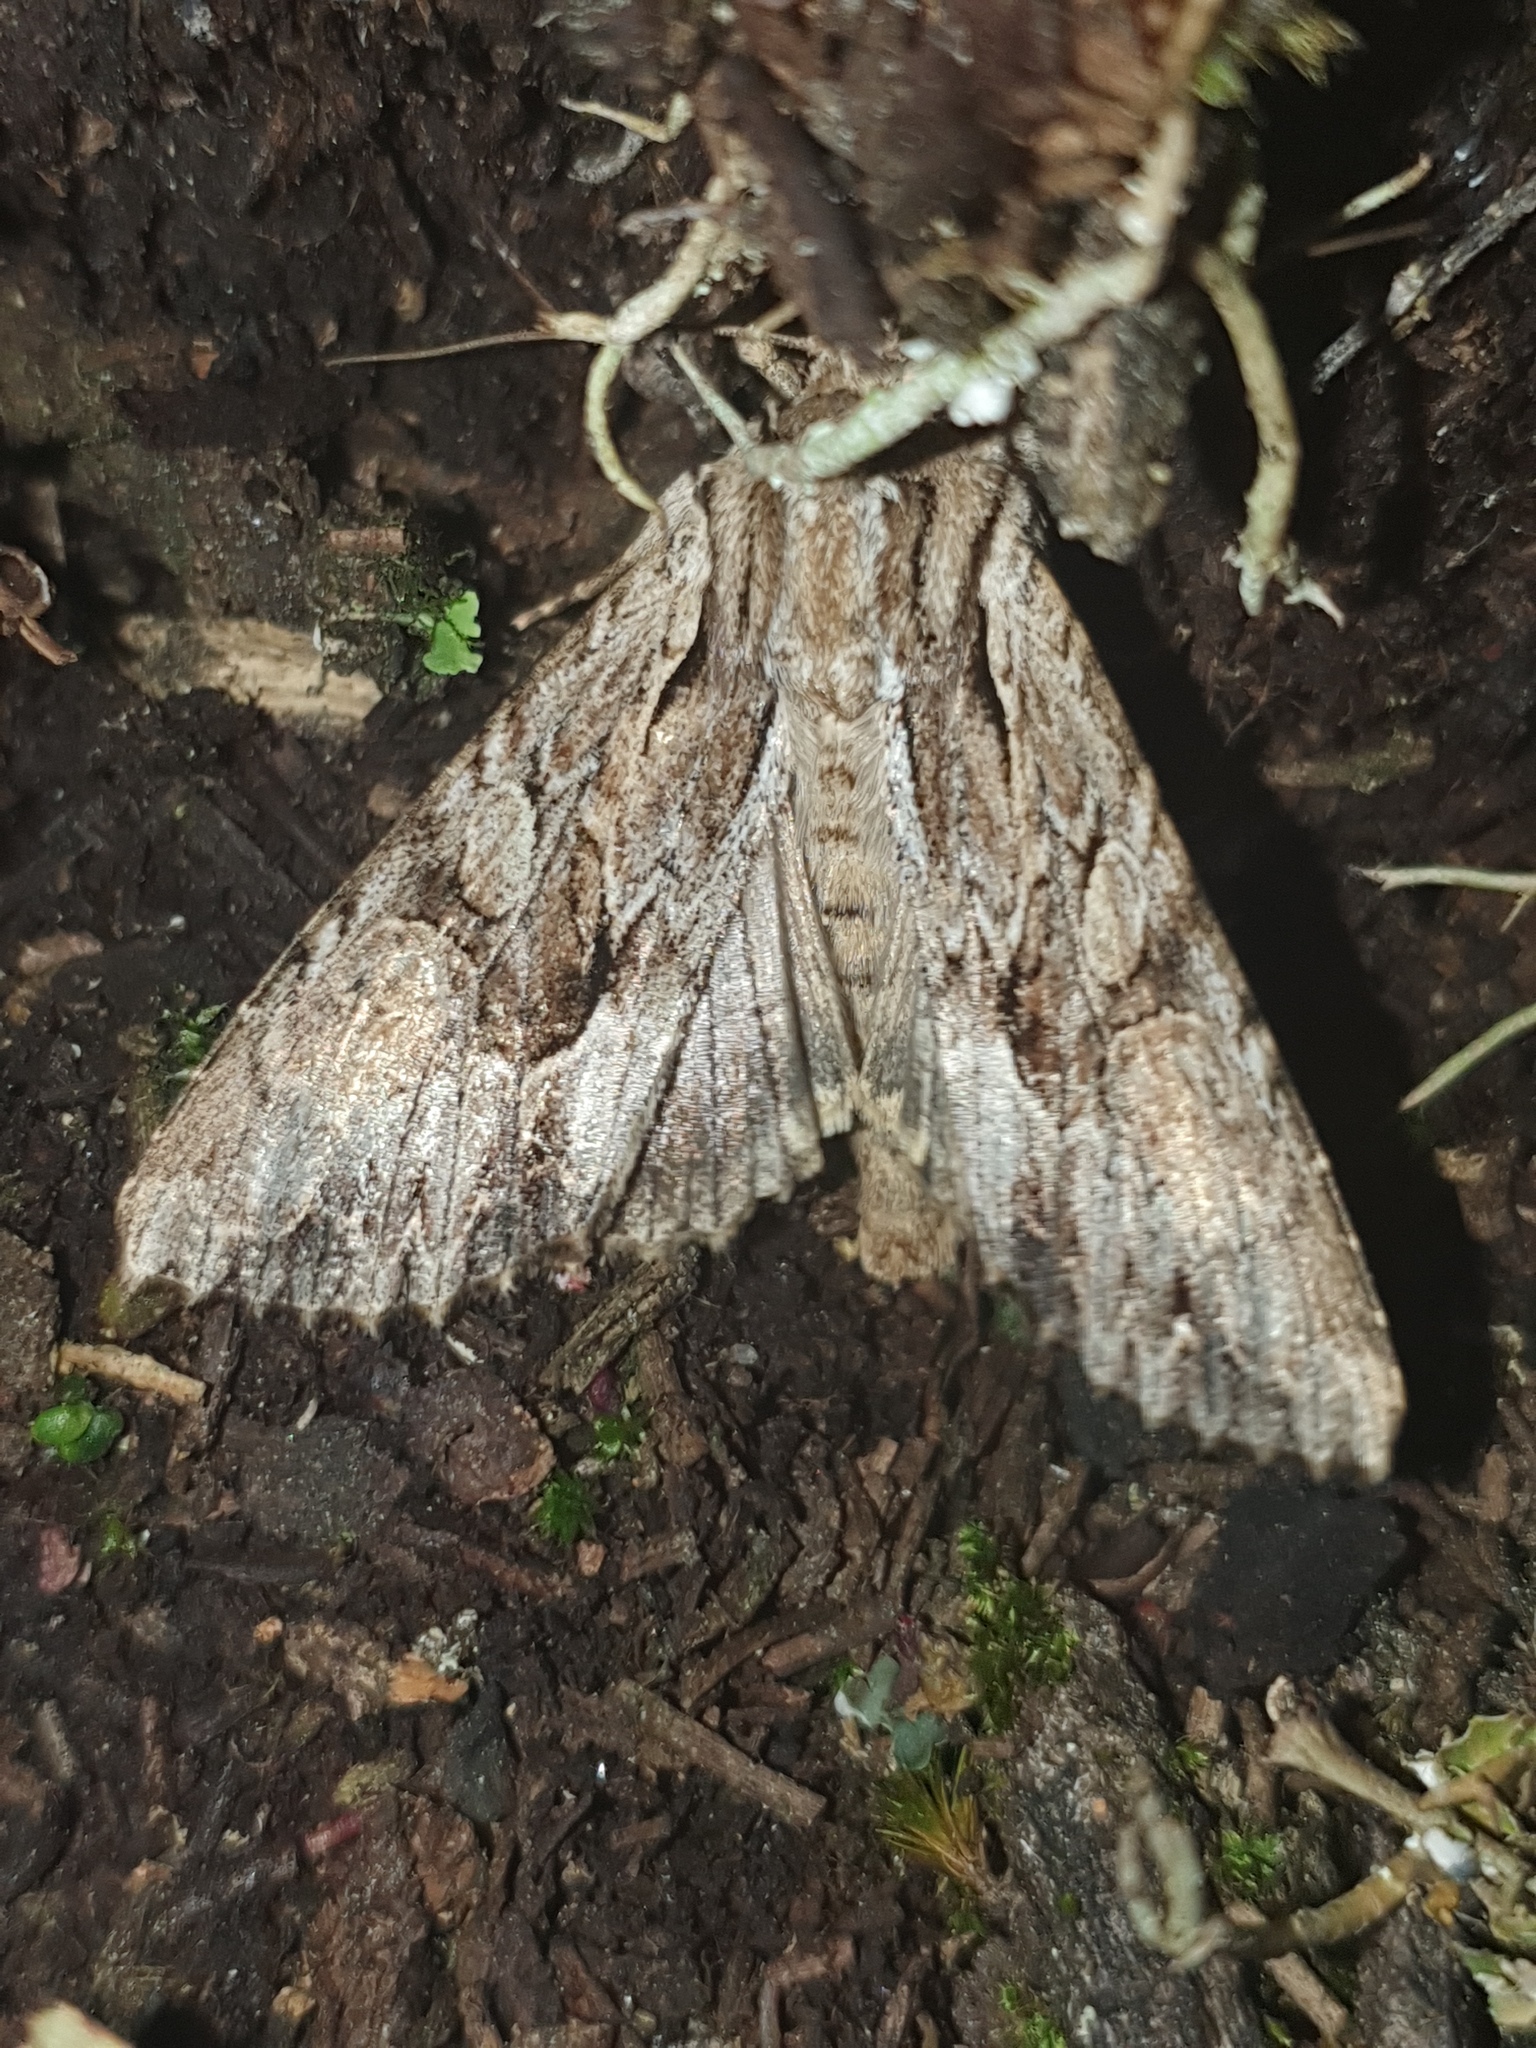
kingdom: Animalia
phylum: Arthropoda
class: Insecta
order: Lepidoptera
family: Noctuidae
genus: Apamea
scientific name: Apamea monoglypha
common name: Dark arches
